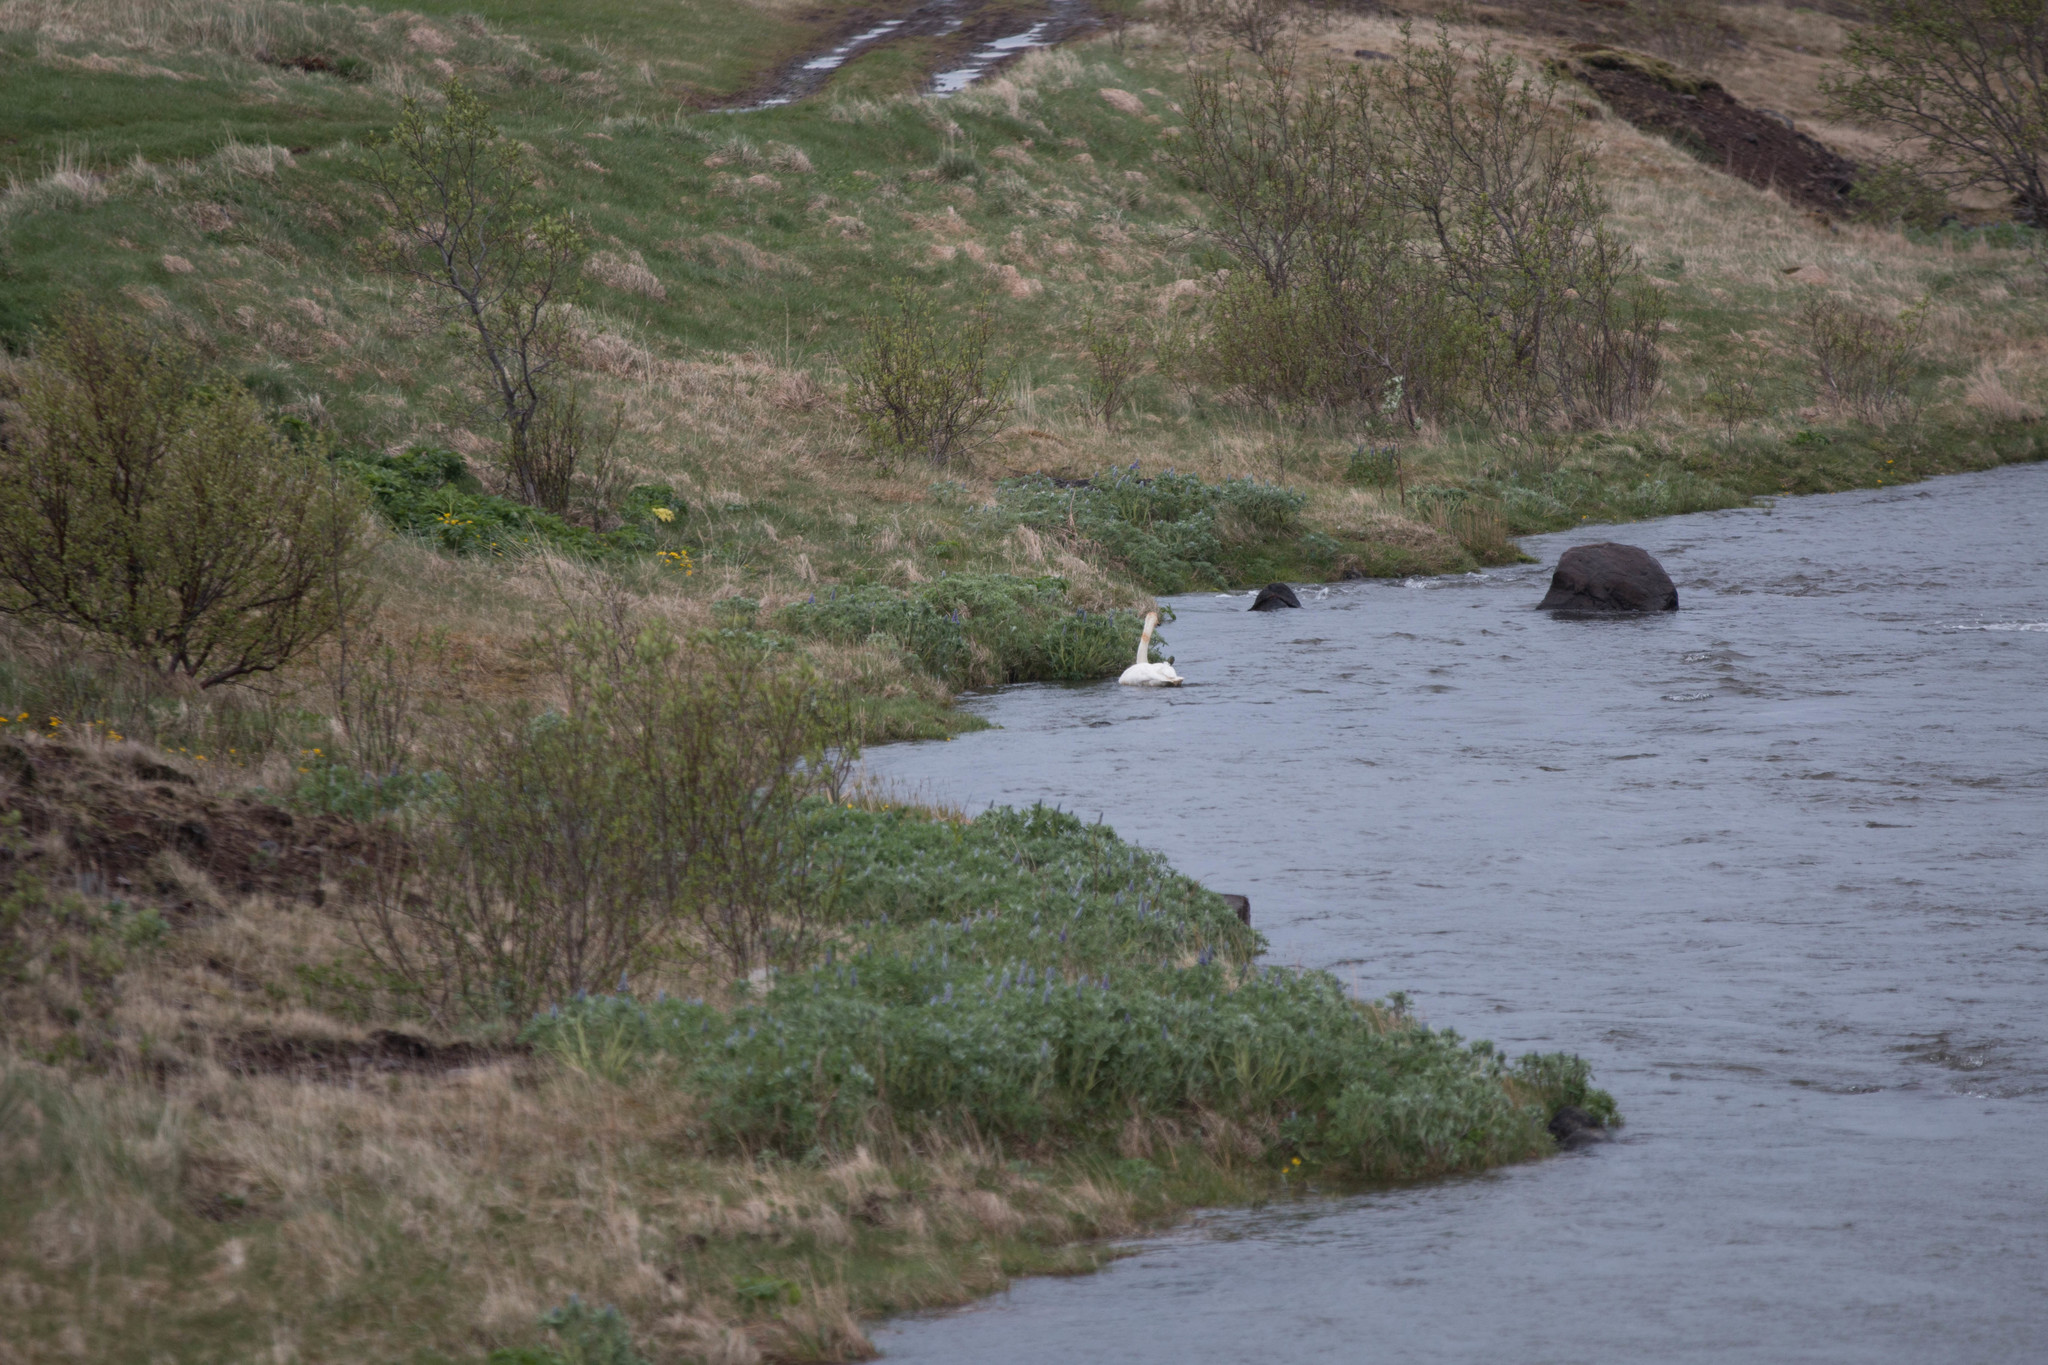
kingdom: Animalia
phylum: Chordata
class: Aves
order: Anseriformes
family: Anatidae
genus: Cygnus
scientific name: Cygnus cygnus
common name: Whooper swan
